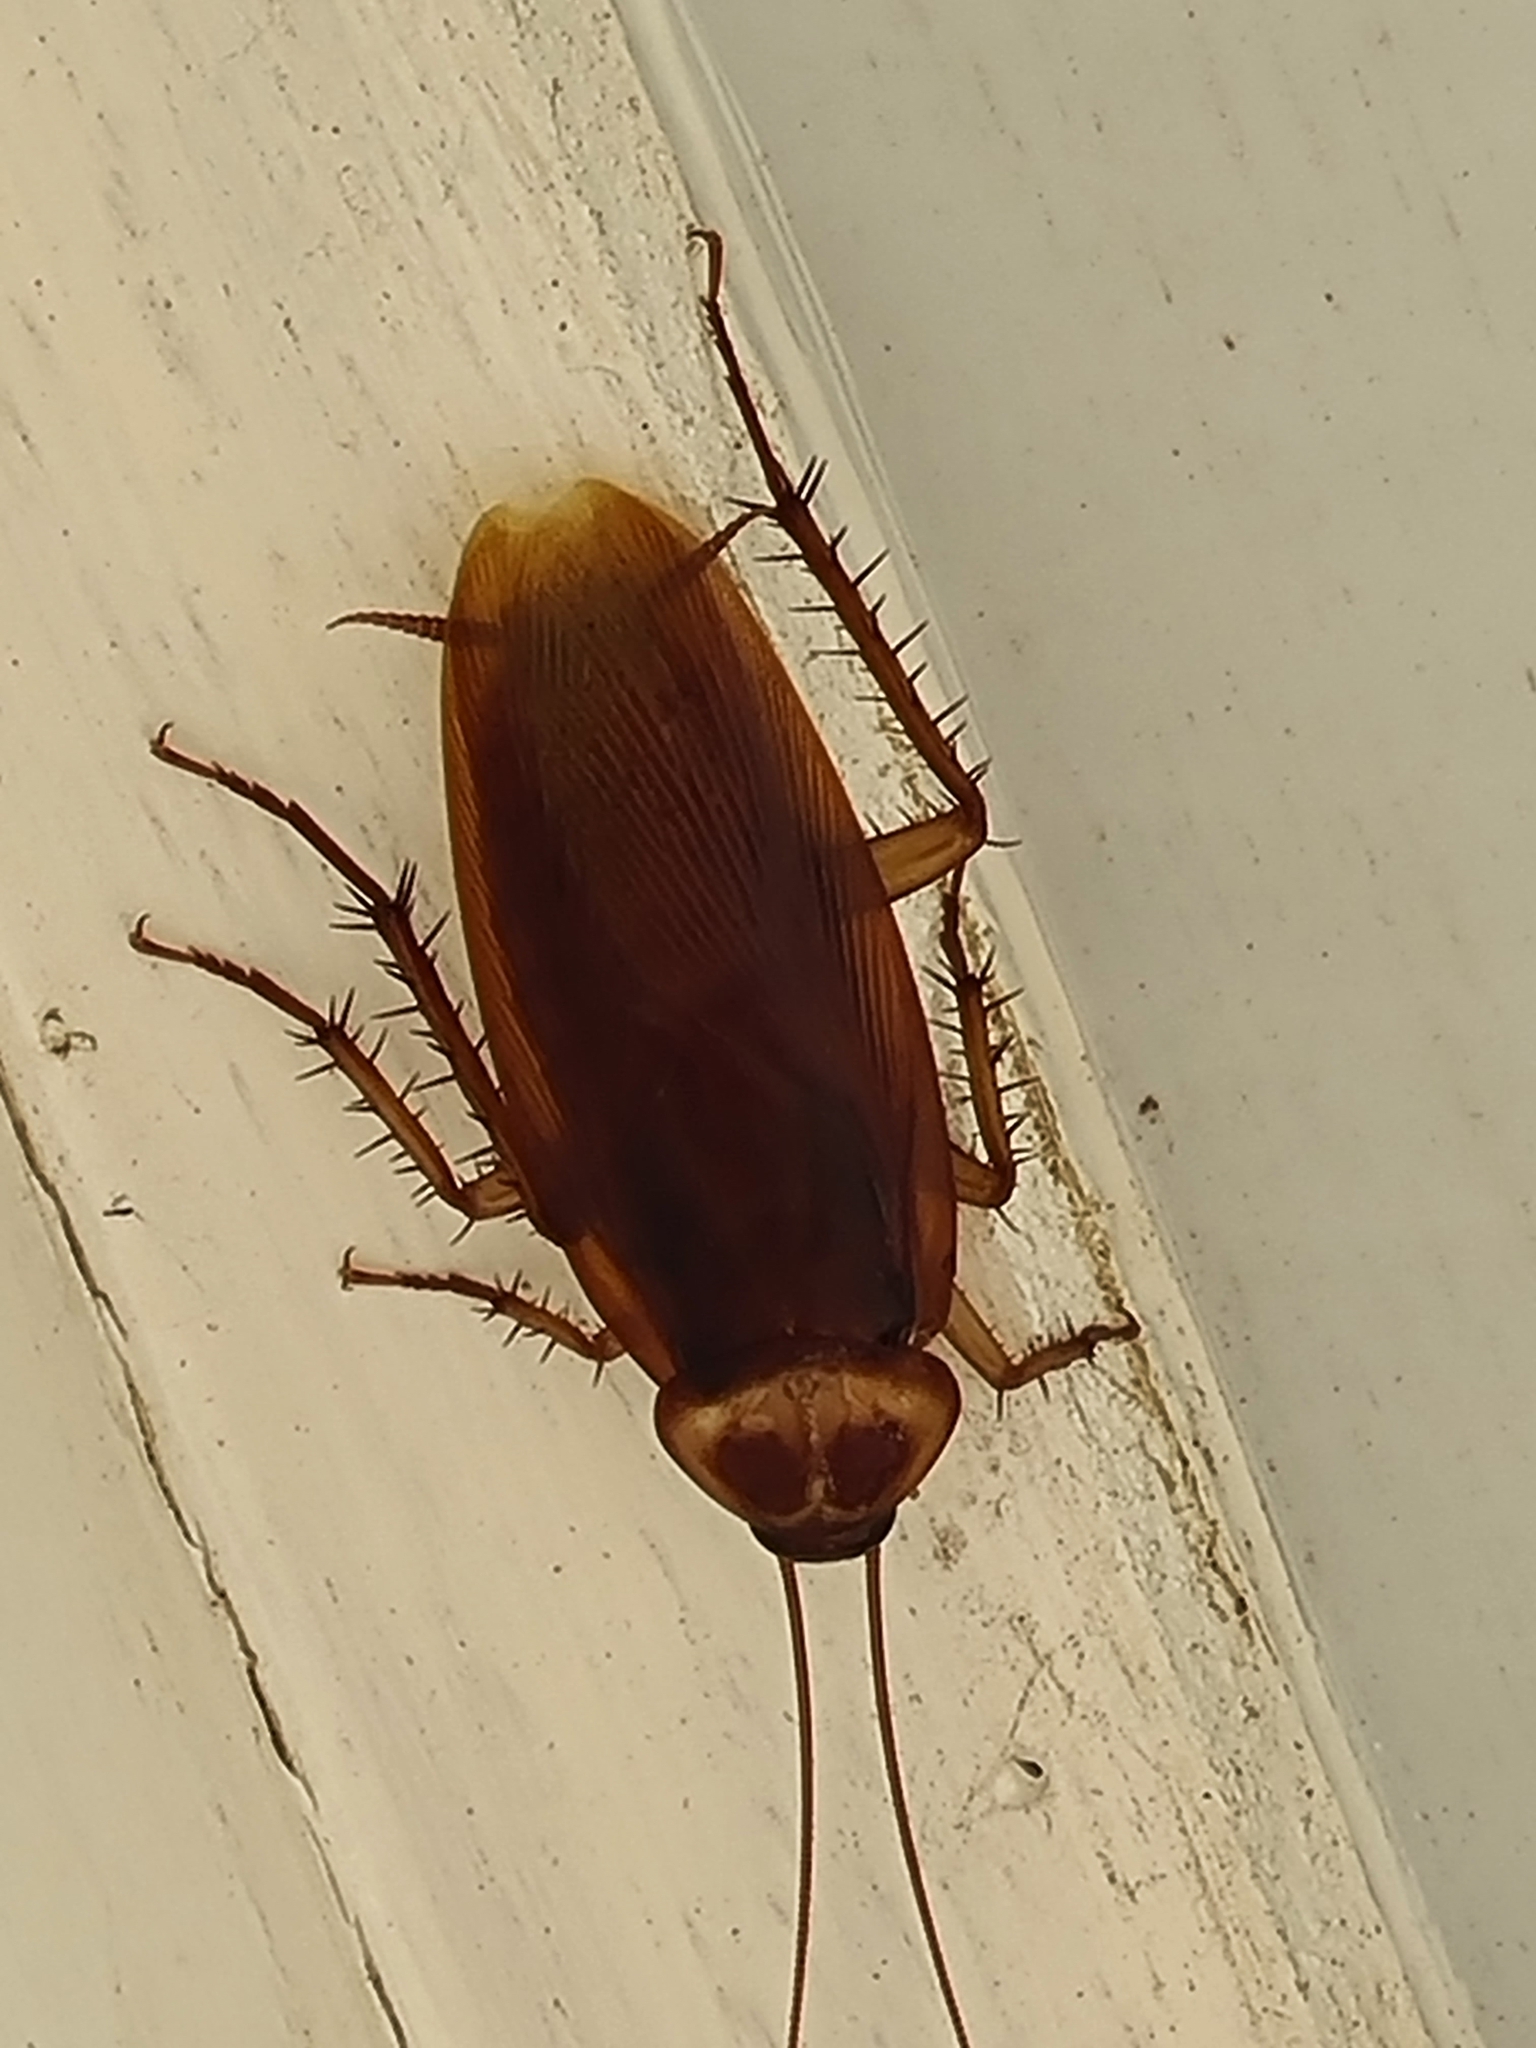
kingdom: Animalia
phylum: Arthropoda
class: Insecta
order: Blattodea
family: Blattidae
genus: Periplaneta
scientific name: Periplaneta americana
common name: American cockroach
